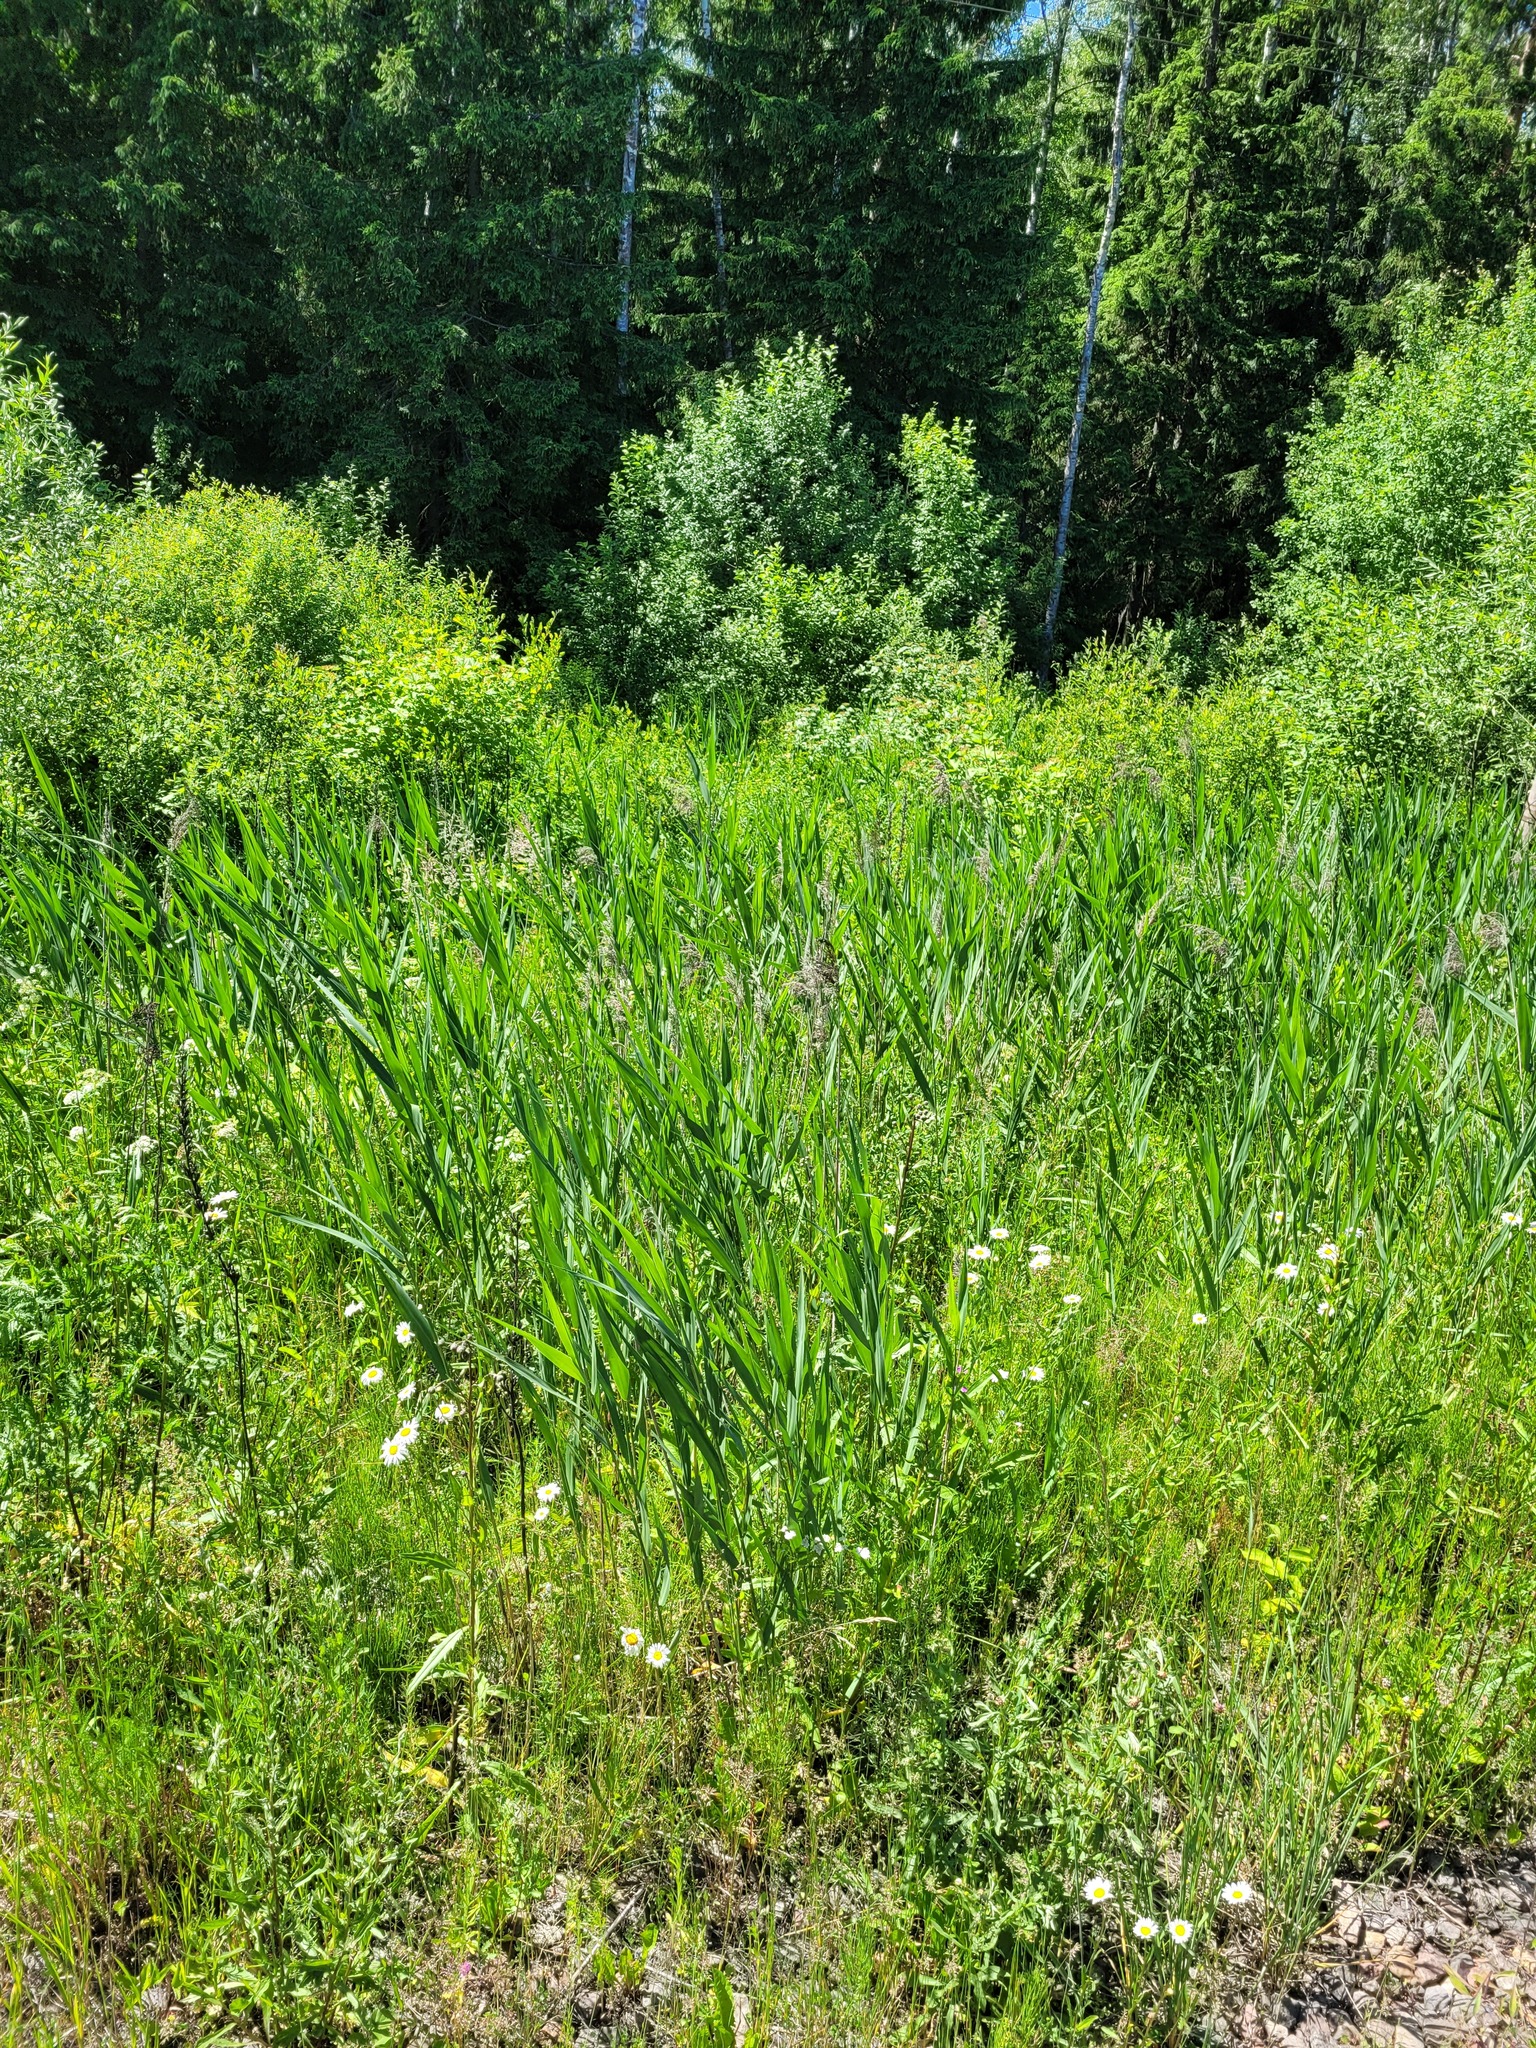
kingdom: Plantae
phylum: Tracheophyta
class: Liliopsida
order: Poales
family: Poaceae
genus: Phragmites
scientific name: Phragmites australis
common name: Common reed
